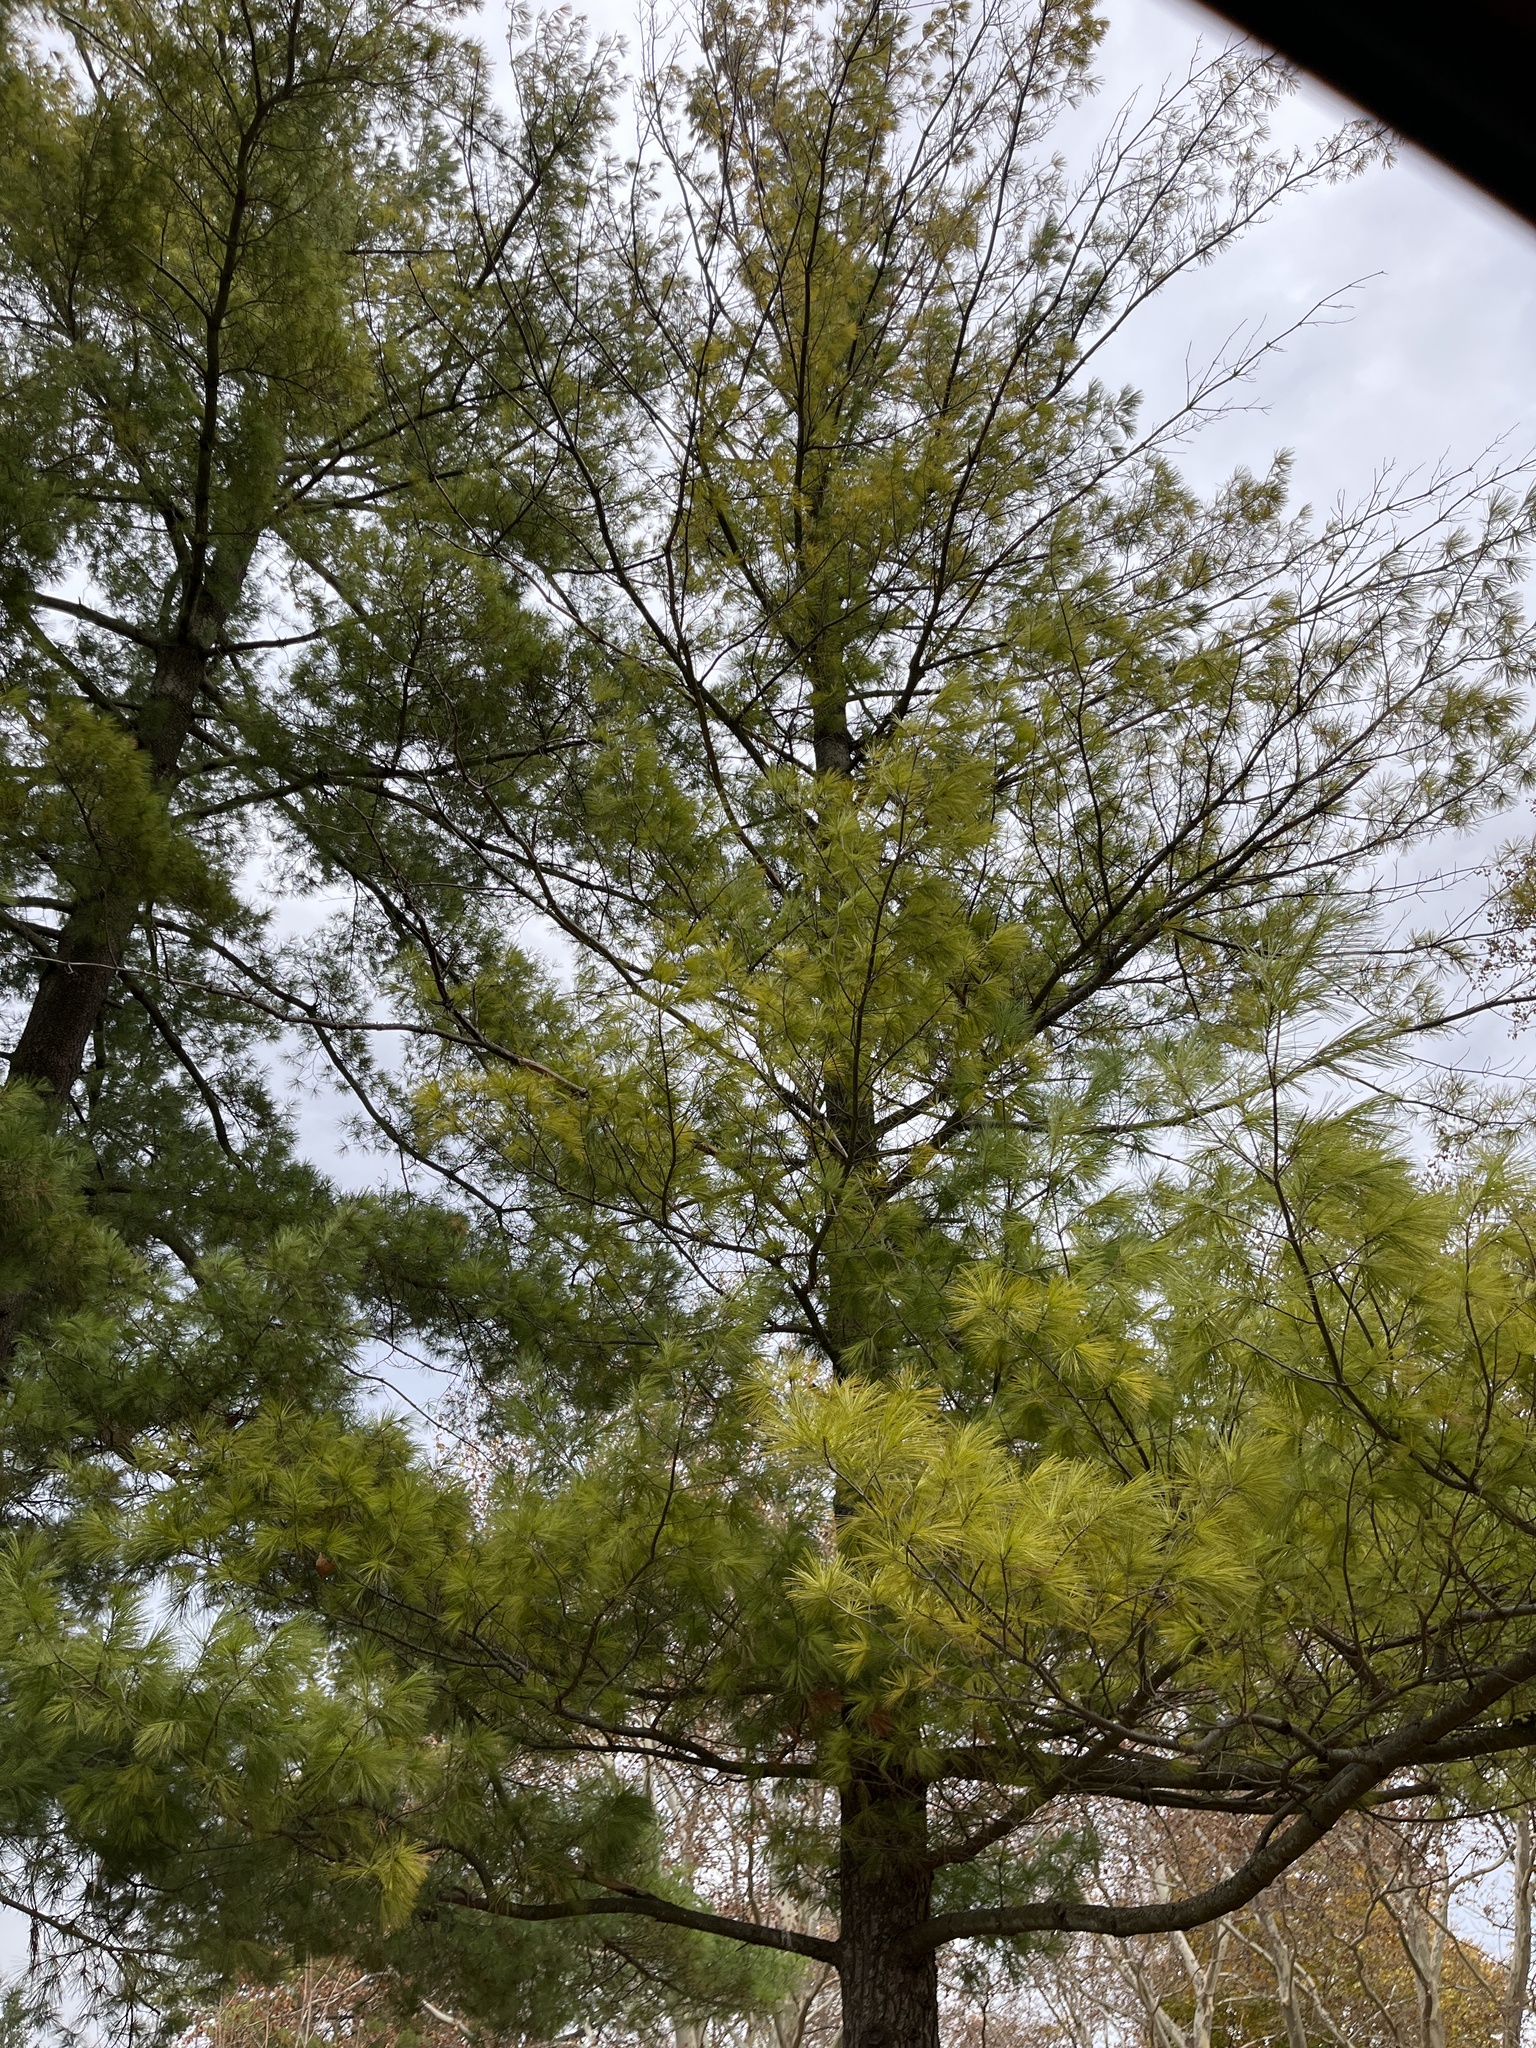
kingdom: Plantae
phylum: Tracheophyta
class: Pinopsida
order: Pinales
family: Pinaceae
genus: Pinus
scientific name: Pinus strobus
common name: Weymouth pine
